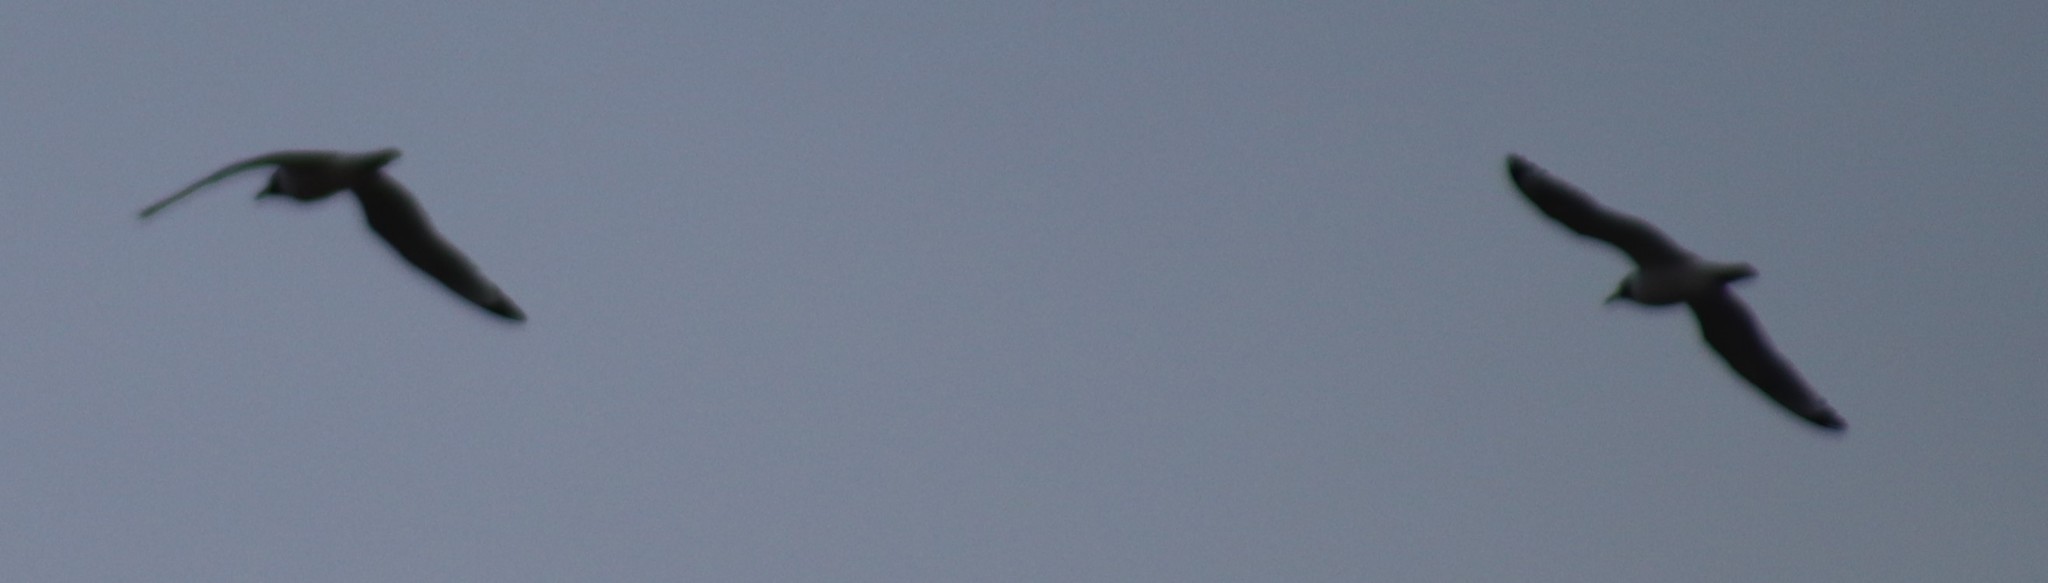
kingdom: Animalia
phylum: Chordata
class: Aves
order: Charadriiformes
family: Laridae
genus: Leucophaeus
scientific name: Leucophaeus pipixcan
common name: Franklin's gull
